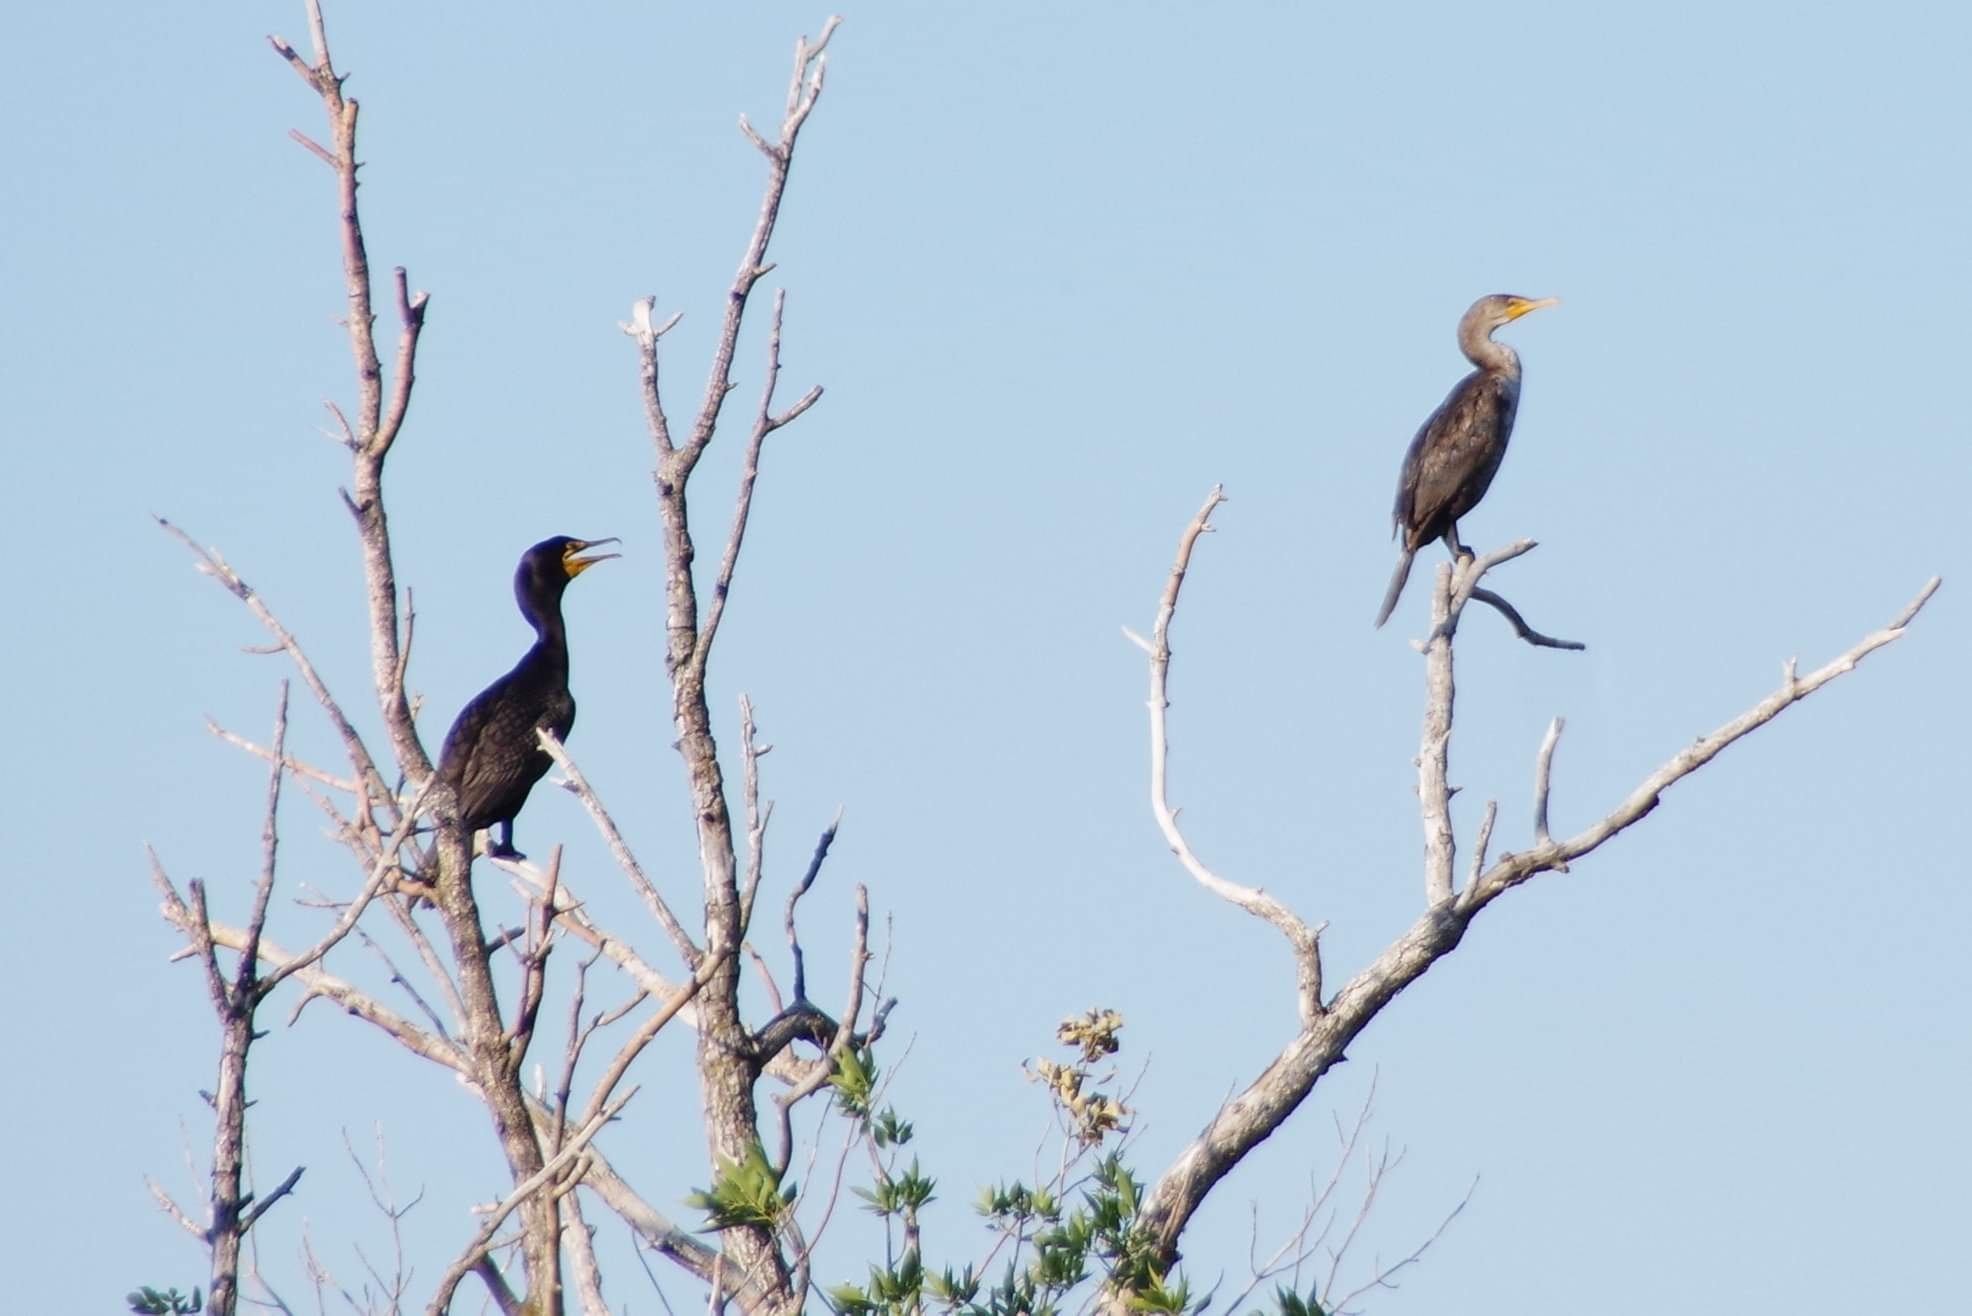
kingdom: Animalia
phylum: Chordata
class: Aves
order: Suliformes
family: Phalacrocoracidae
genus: Phalacrocorax
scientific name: Phalacrocorax auritus
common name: Double-crested cormorant
